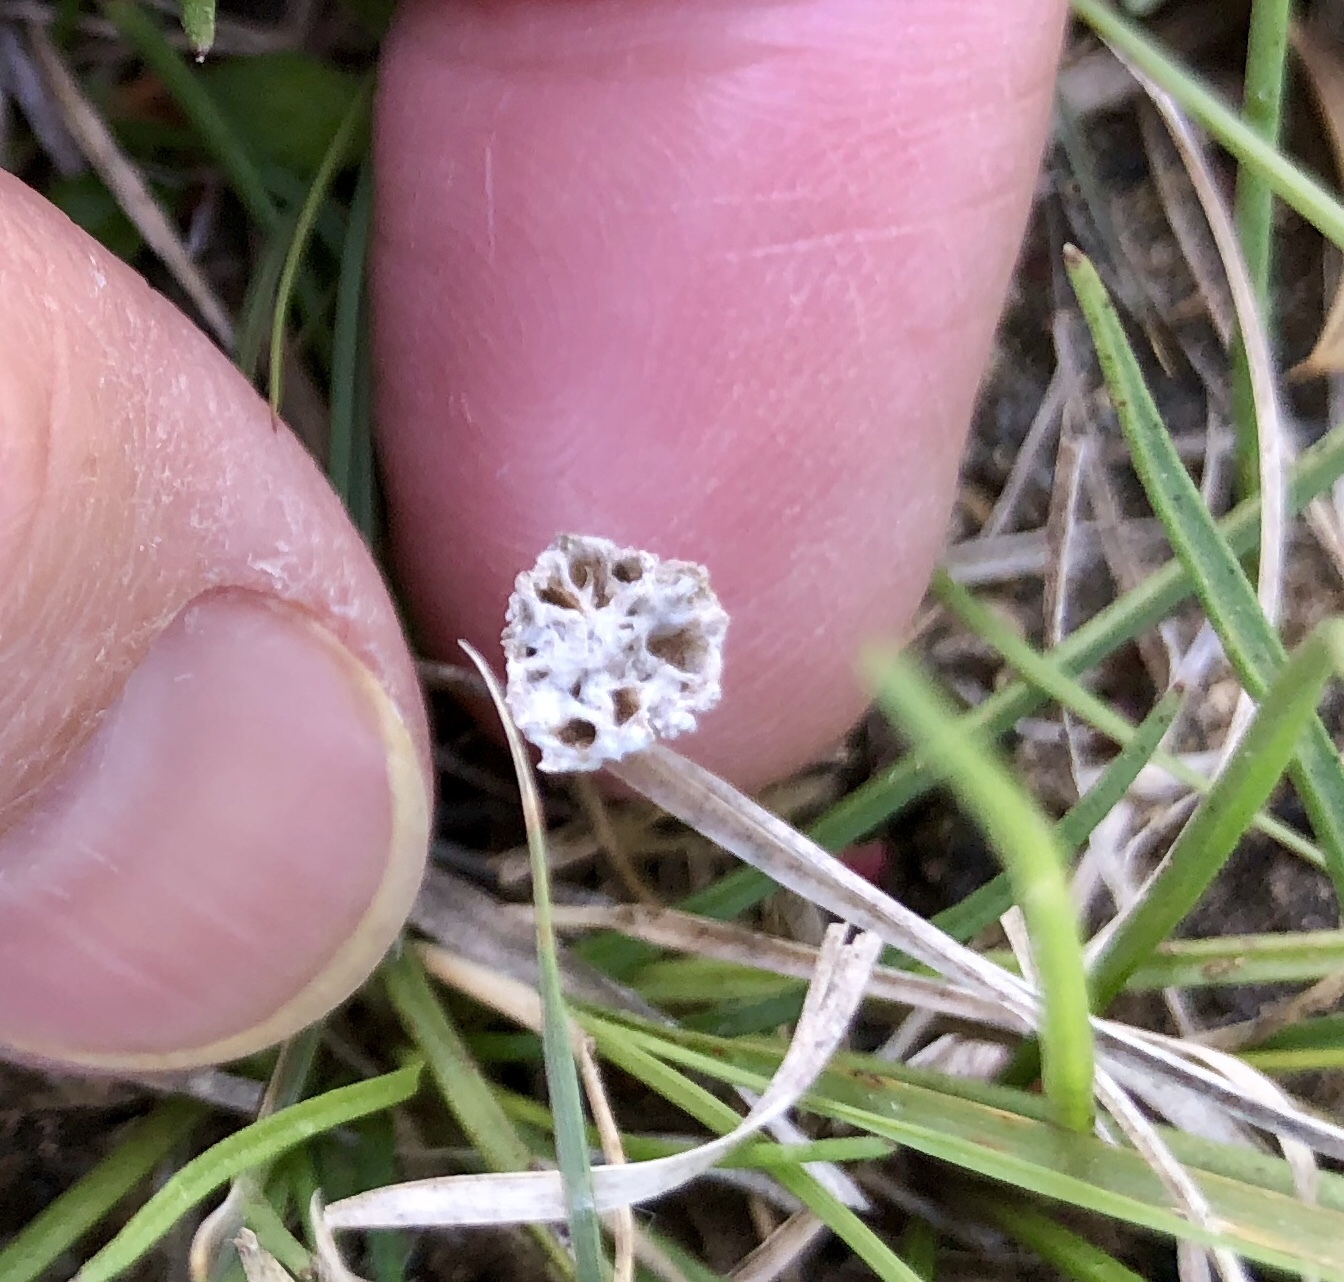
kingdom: Plantae
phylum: Tracheophyta
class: Magnoliopsida
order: Asterales
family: Asteraceae
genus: Diaperia
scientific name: Diaperia prolifera
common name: Big-head rabbit-tobacco
